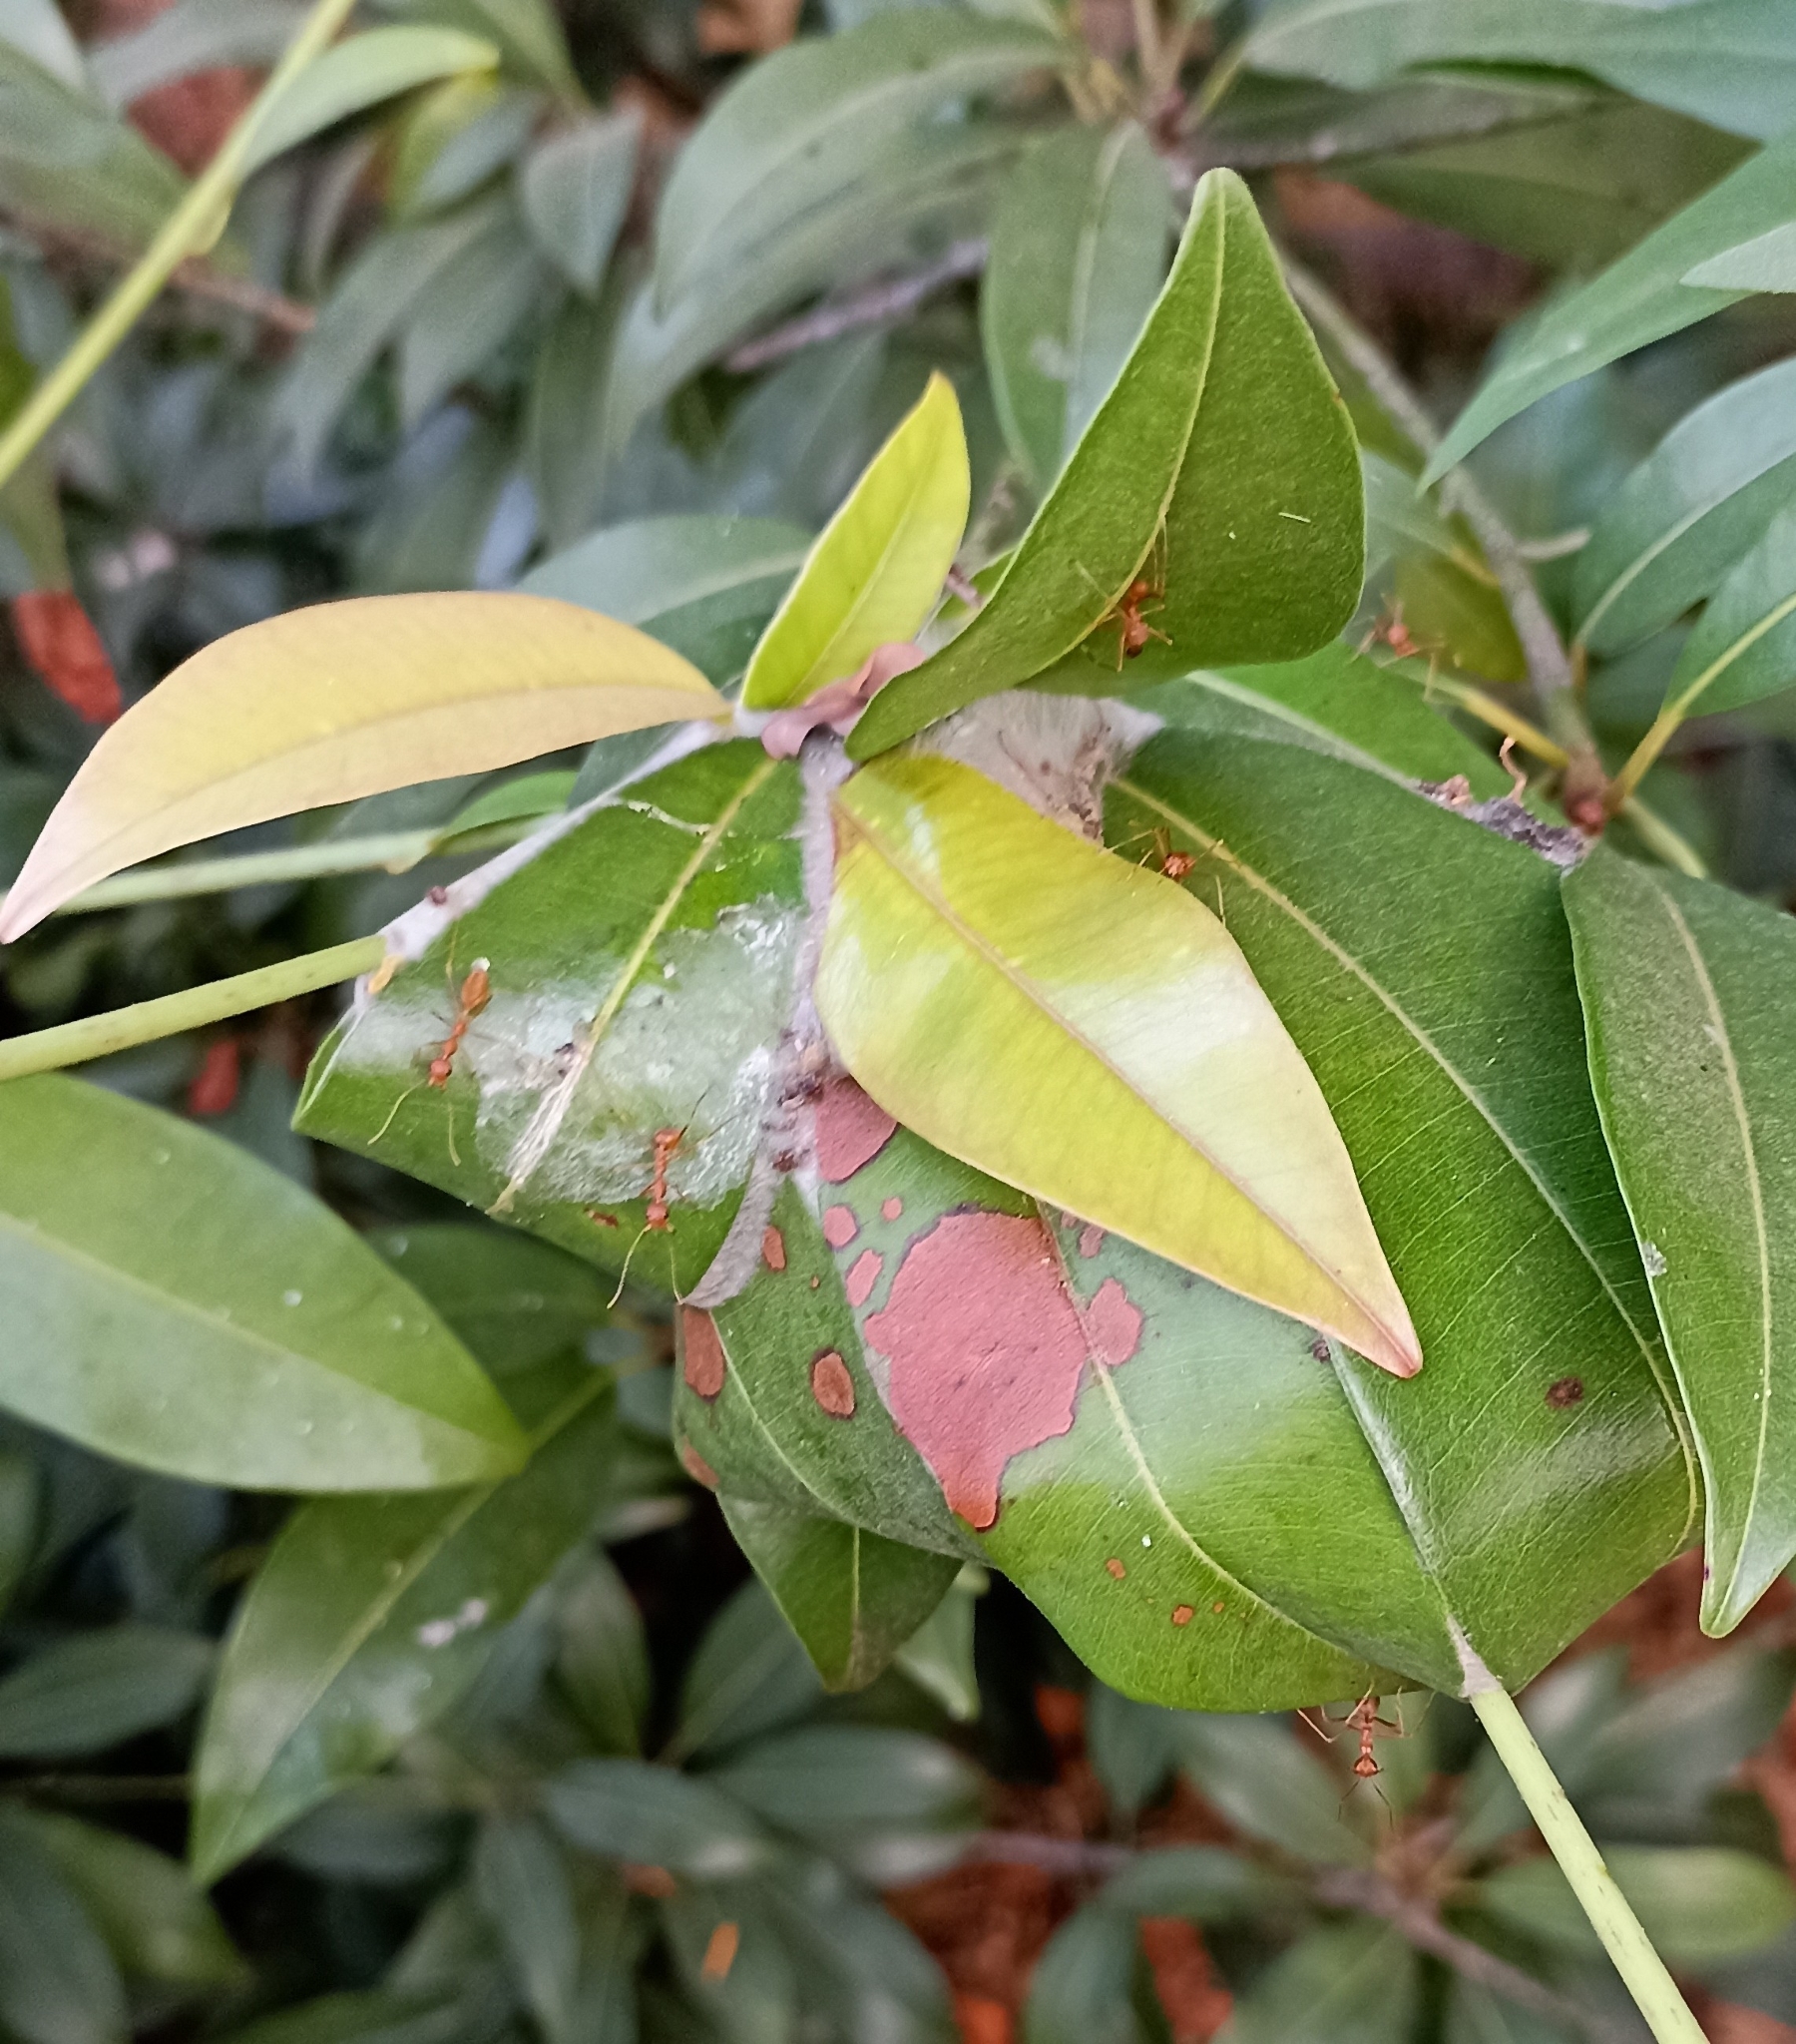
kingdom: Animalia
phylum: Arthropoda
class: Insecta
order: Hymenoptera
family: Formicidae
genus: Oecophylla
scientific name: Oecophylla smaragdina
